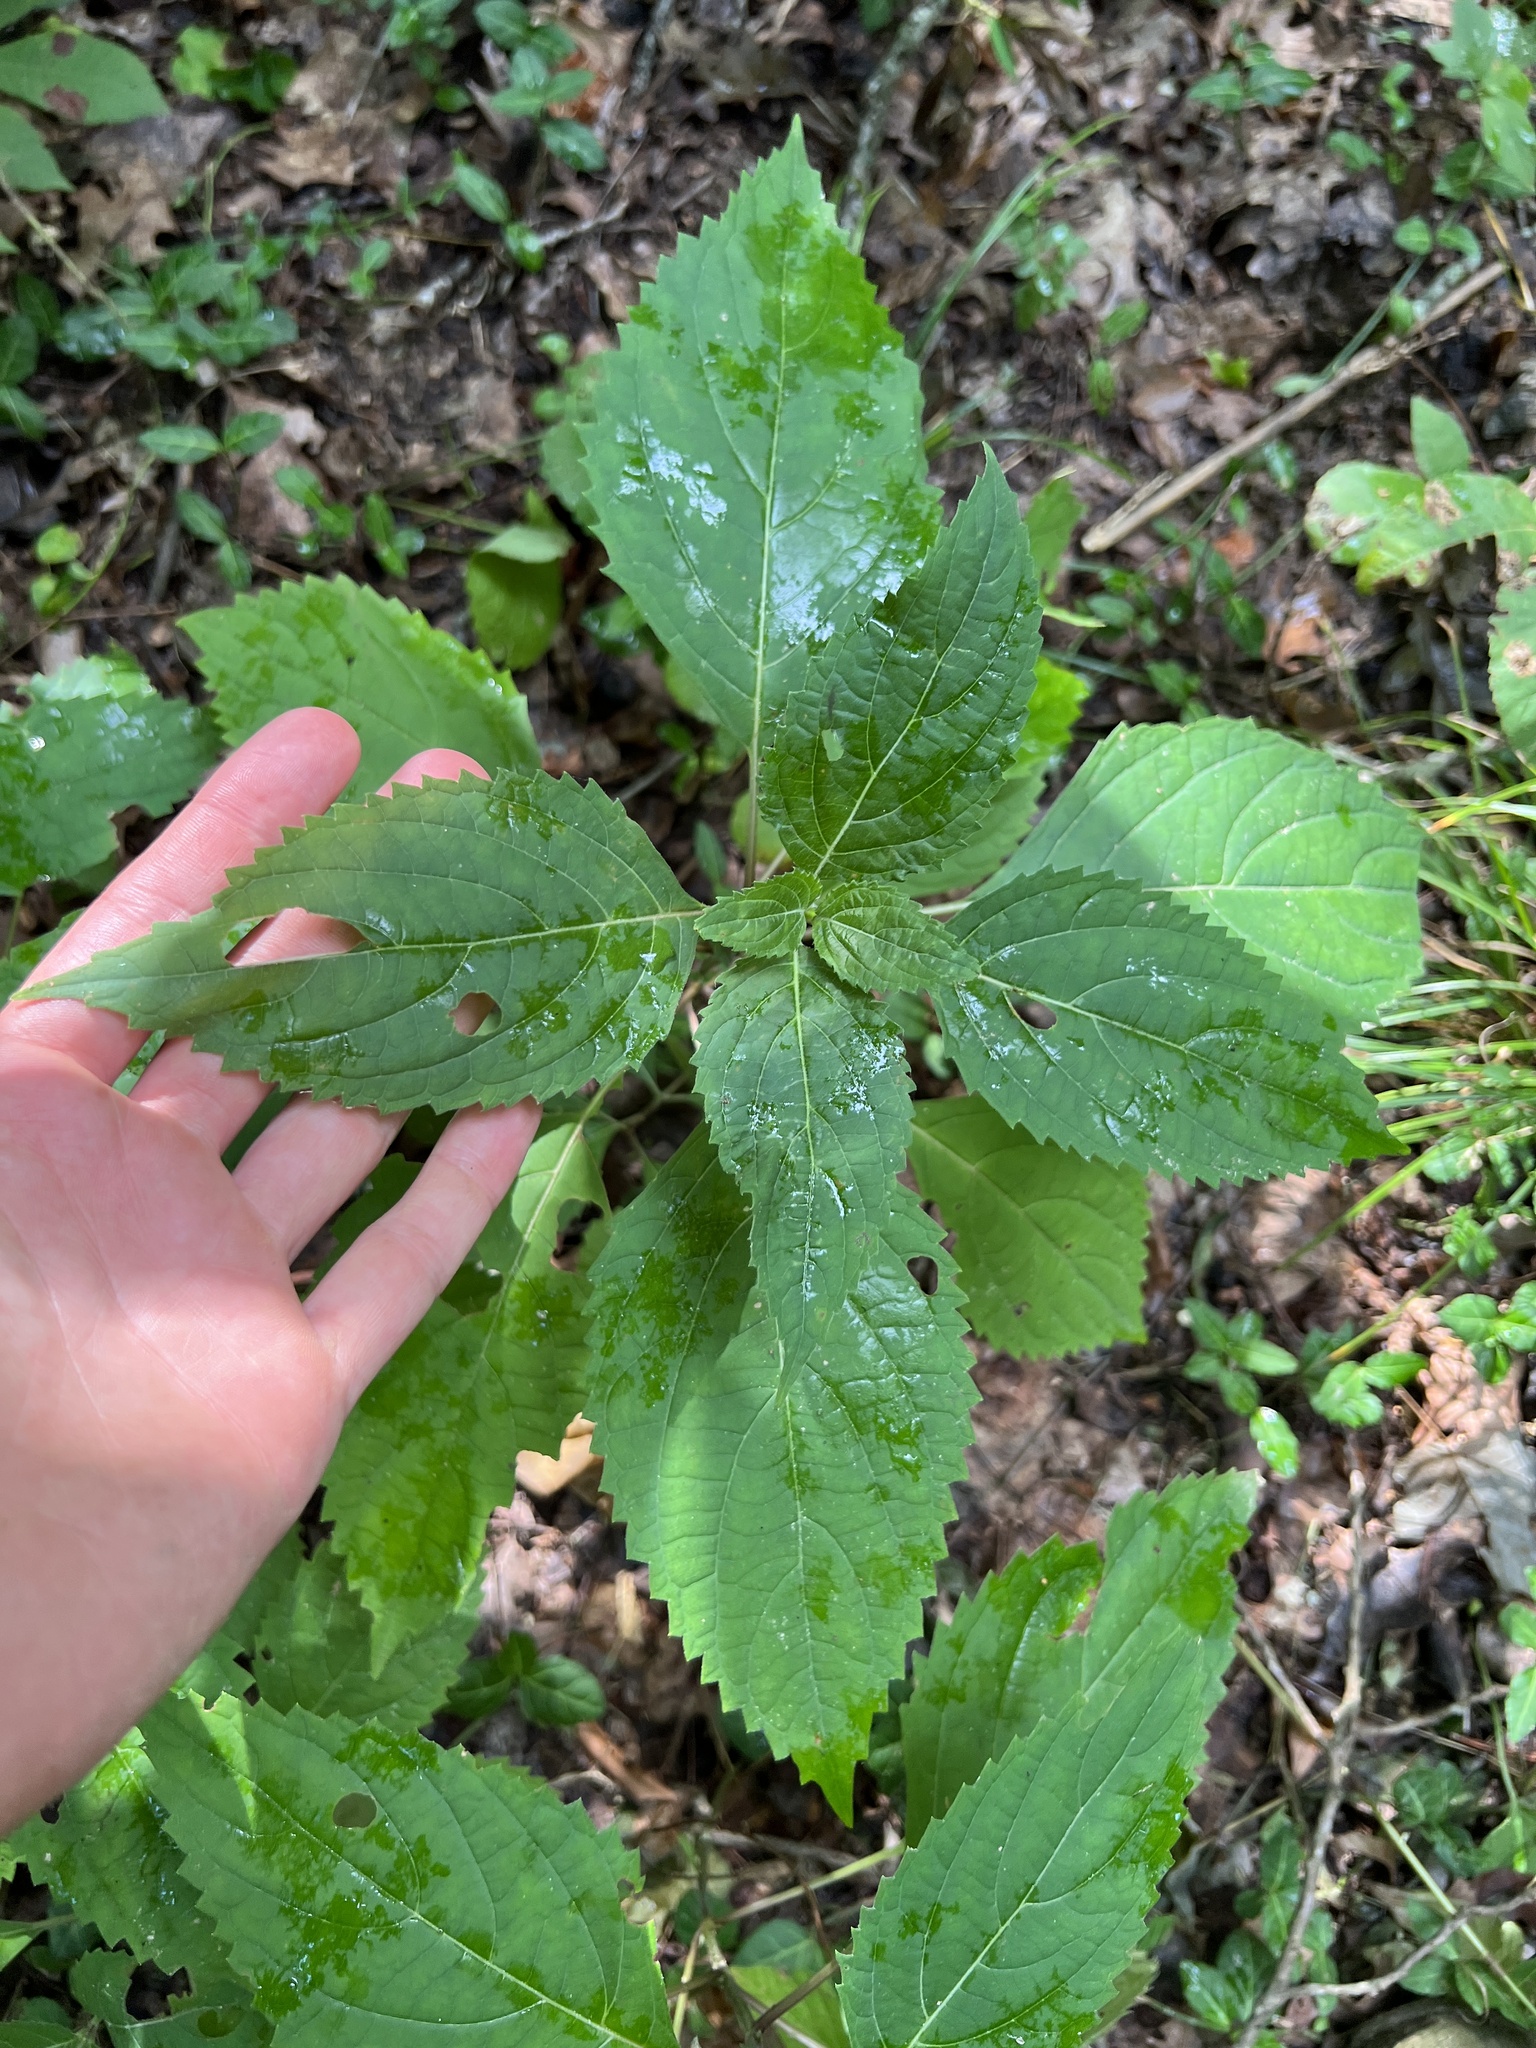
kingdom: Plantae
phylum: Tracheophyta
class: Magnoliopsida
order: Lamiales
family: Lamiaceae
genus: Collinsonia
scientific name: Collinsonia canadensis
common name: Northern horsebalm
